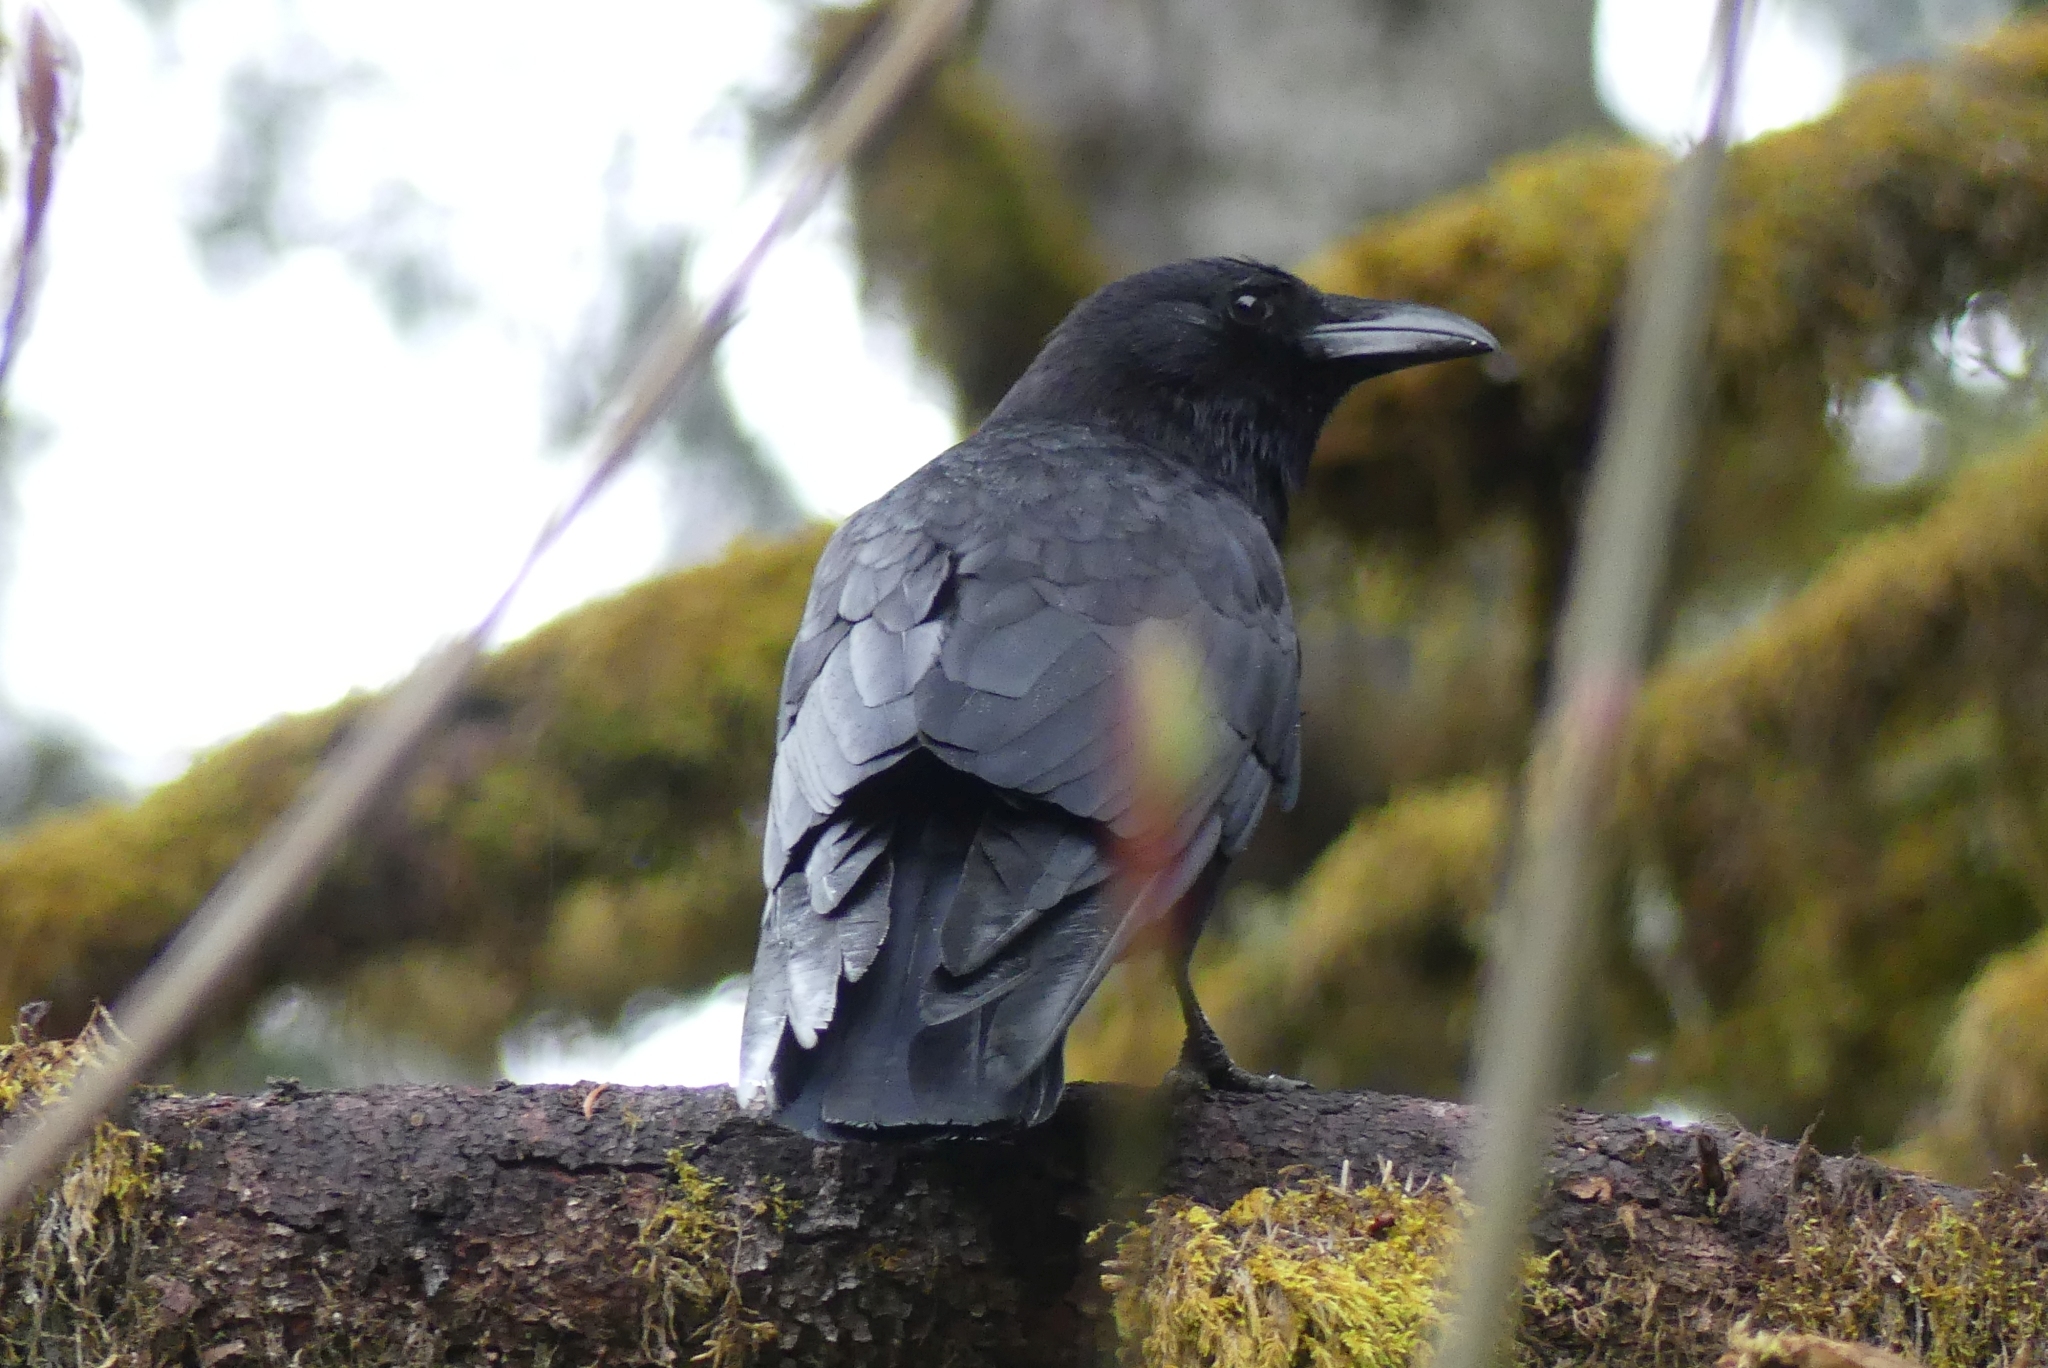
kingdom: Animalia
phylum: Chordata
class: Aves
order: Passeriformes
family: Corvidae
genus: Corvus
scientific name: Corvus brachyrhynchos
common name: American crow
